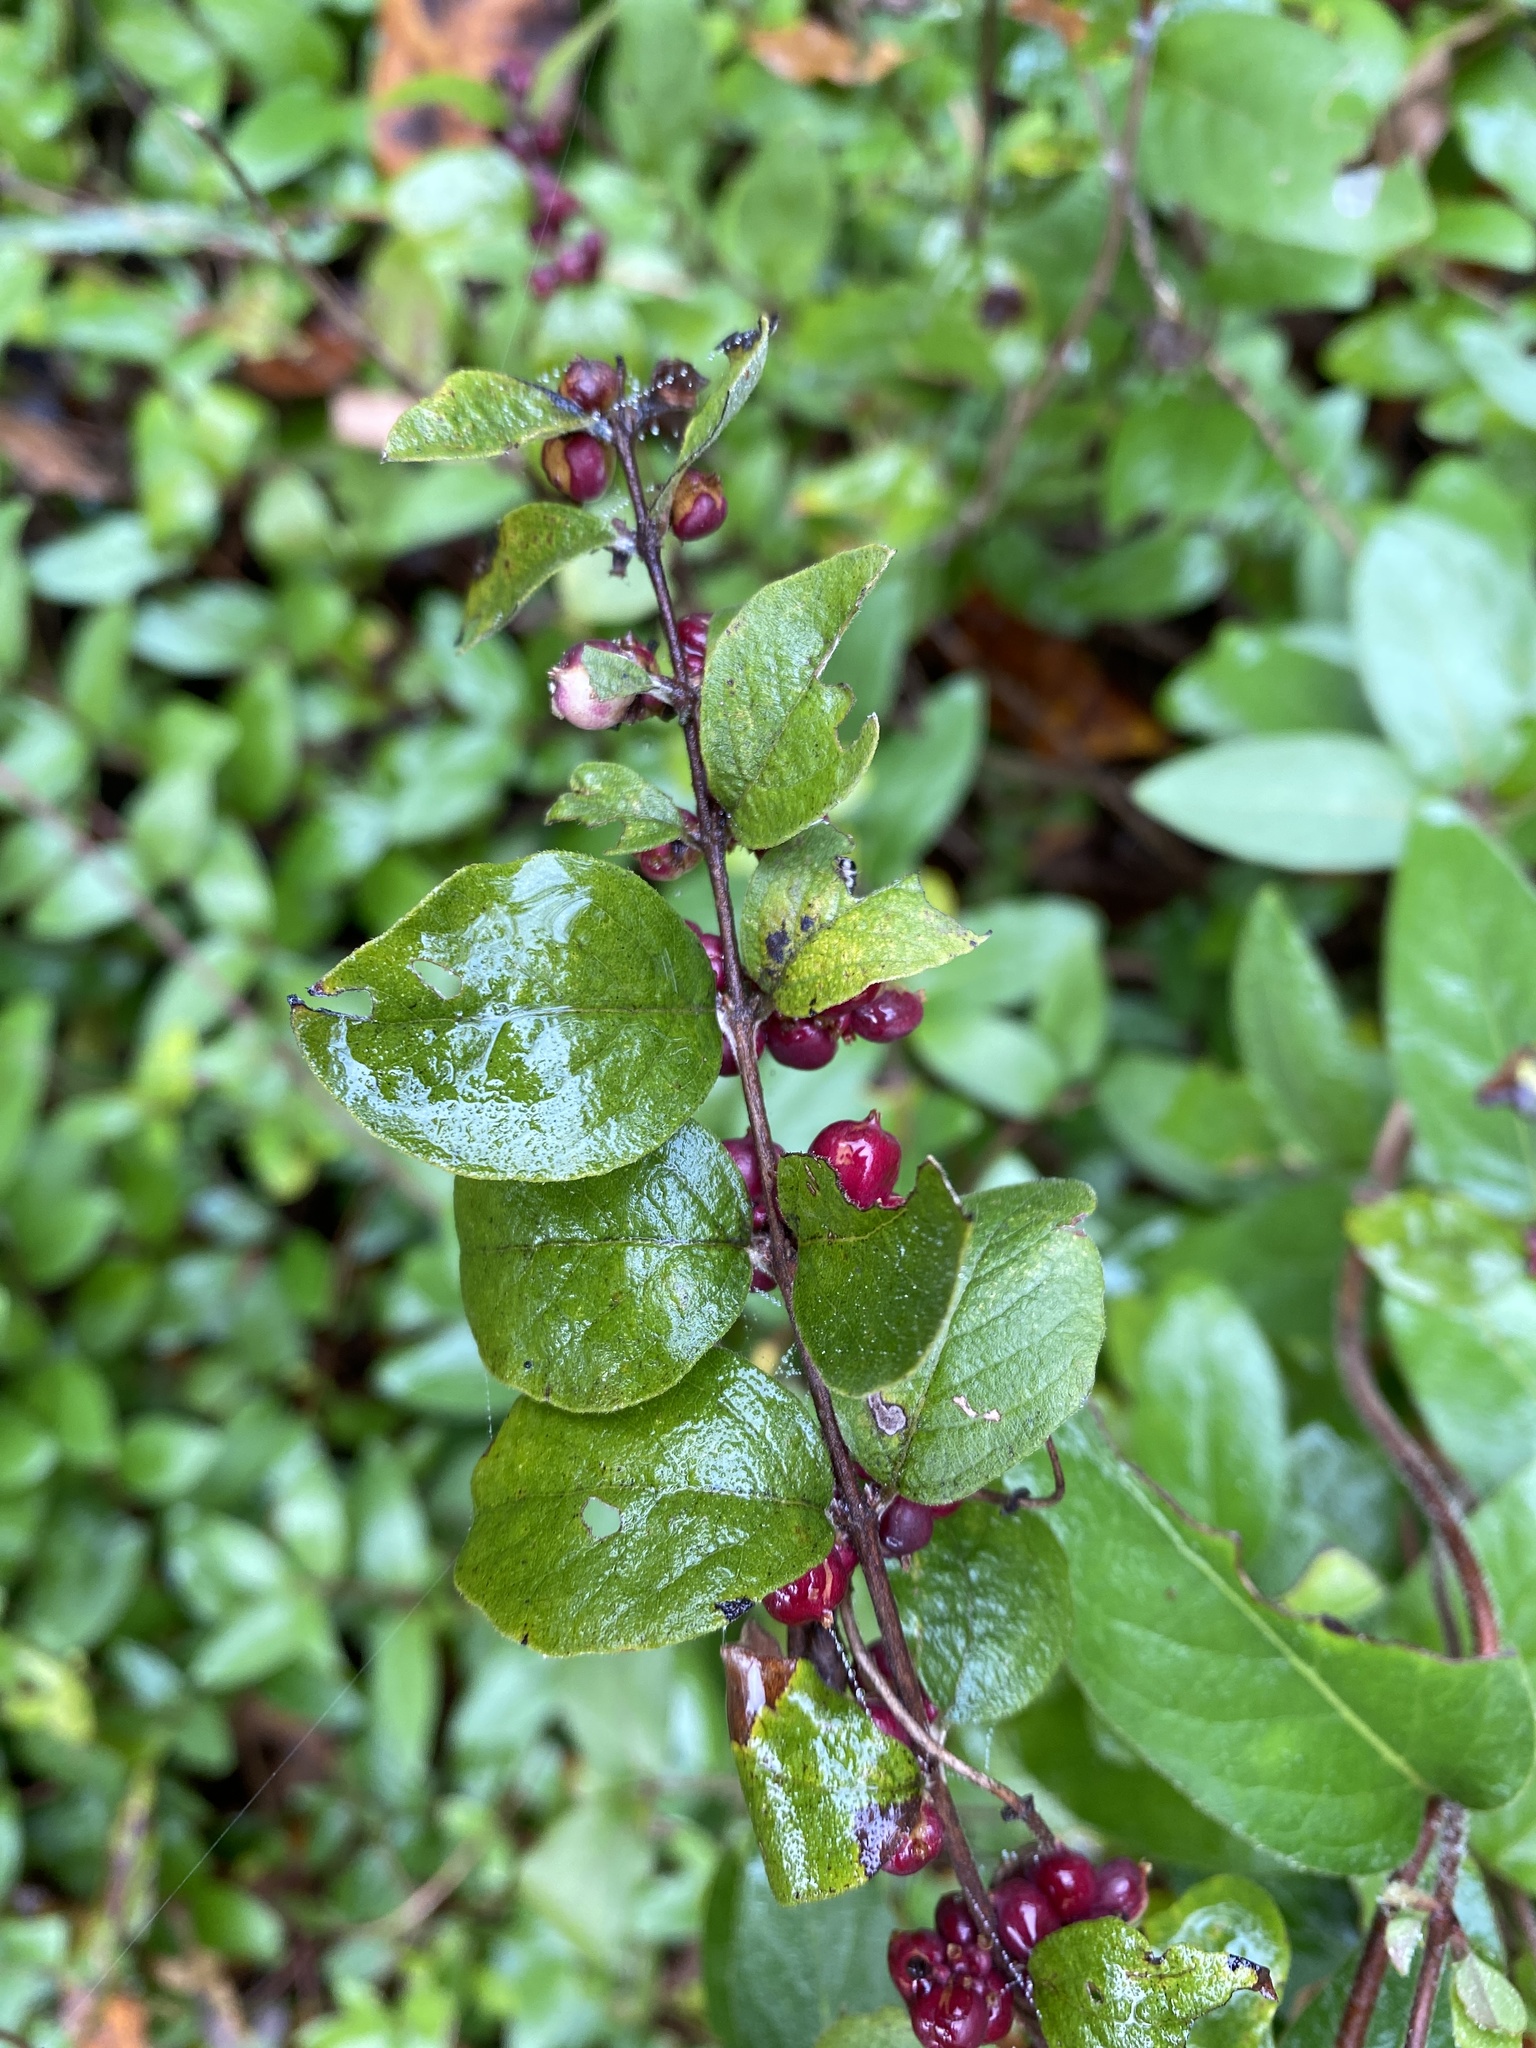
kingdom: Plantae
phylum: Tracheophyta
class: Magnoliopsida
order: Dipsacales
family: Caprifoliaceae
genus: Symphoricarpos
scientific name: Symphoricarpos orbiculatus
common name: Coralberry
